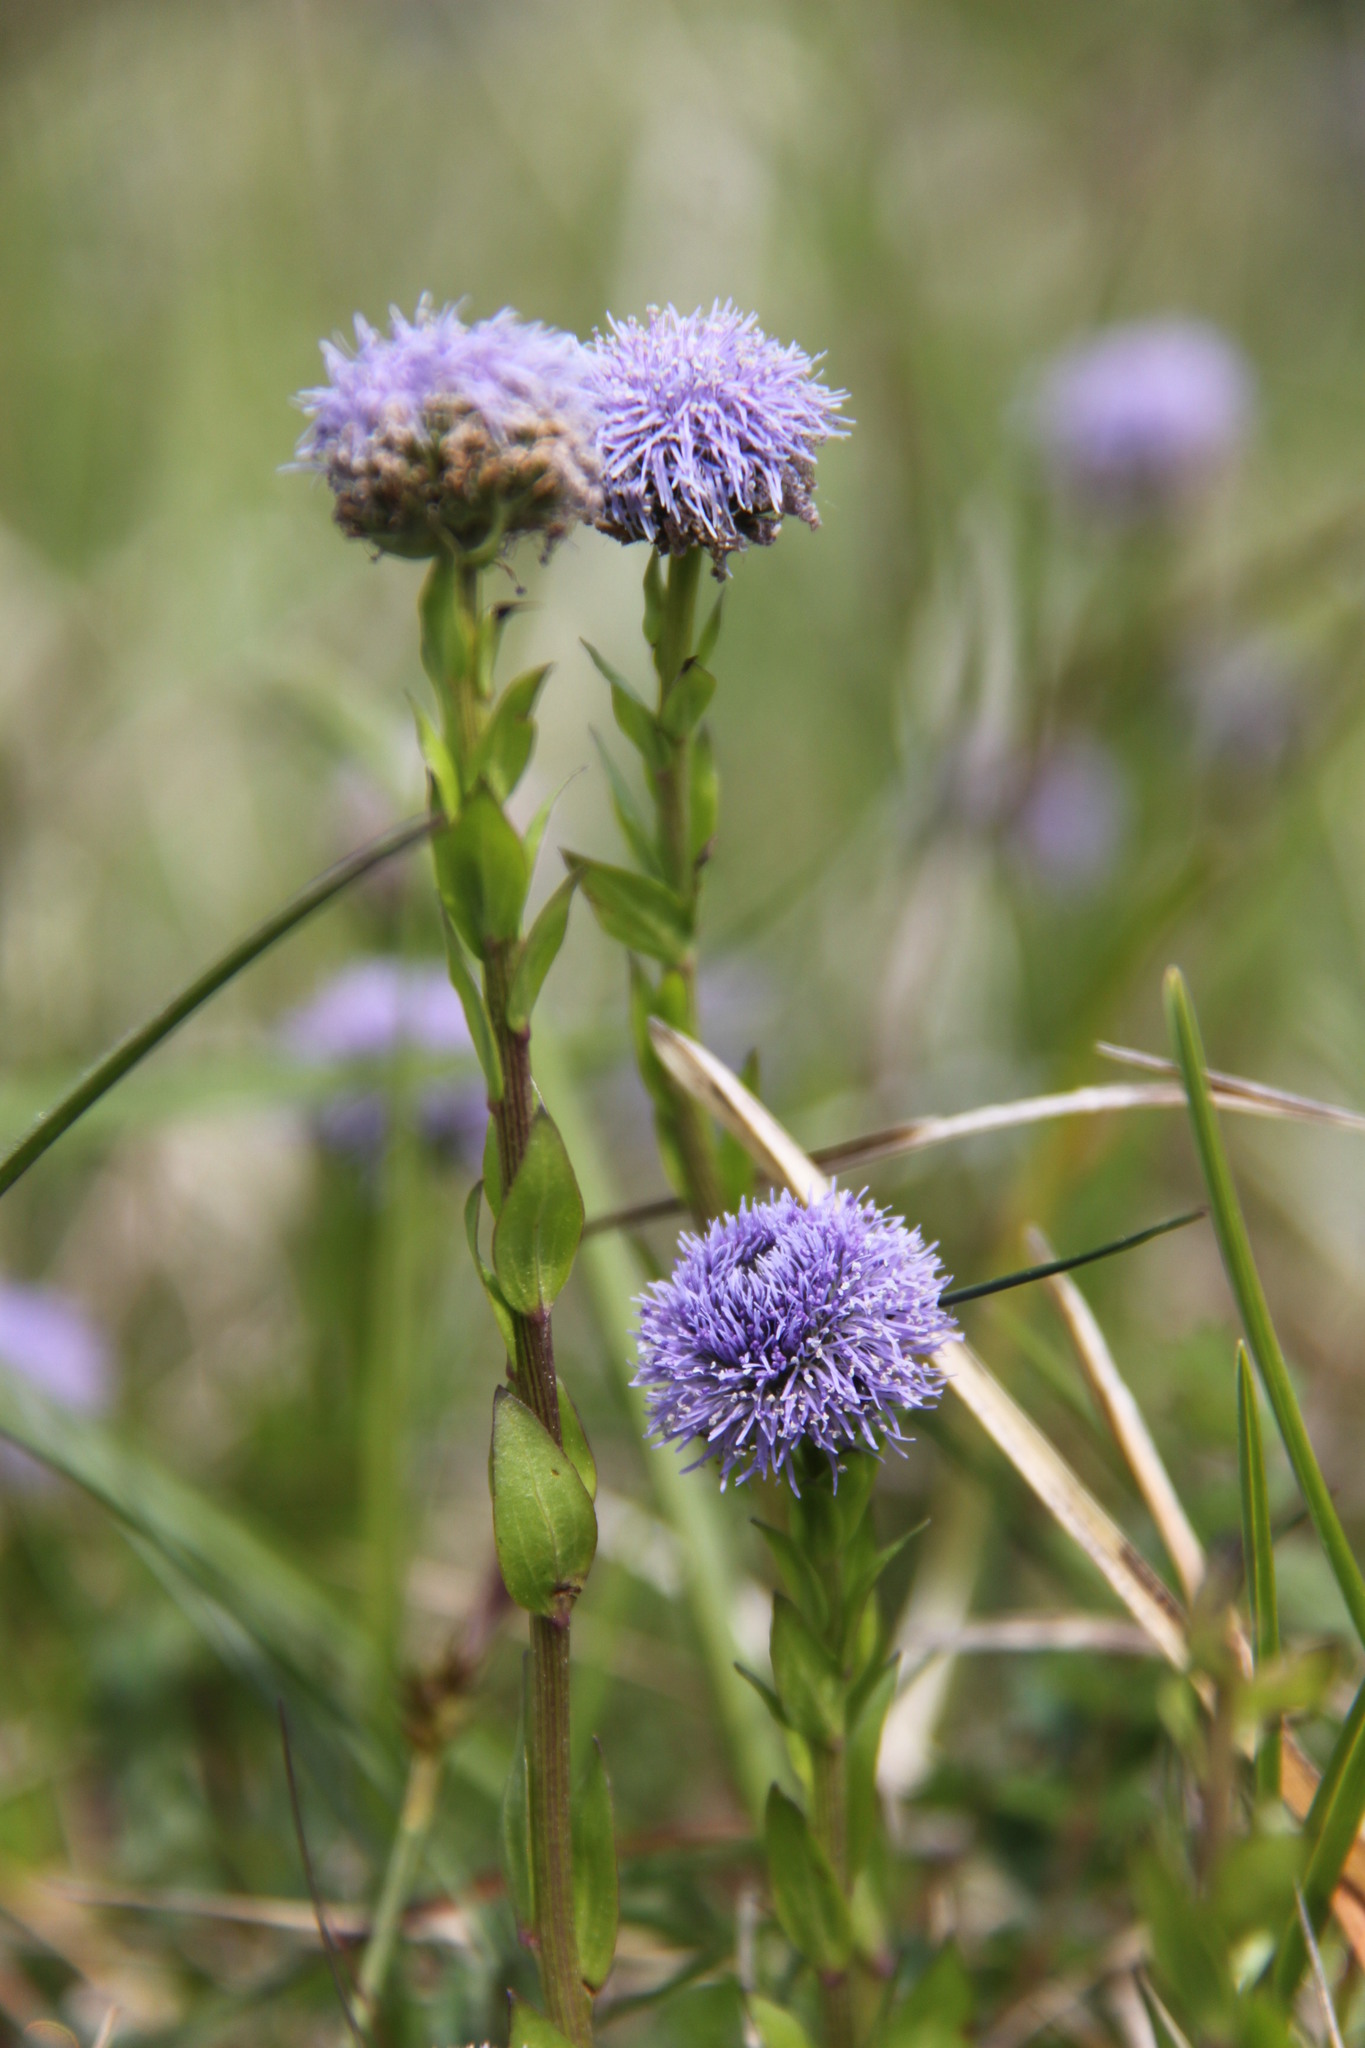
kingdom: Plantae
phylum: Tracheophyta
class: Magnoliopsida
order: Lamiales
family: Plantaginaceae
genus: Globularia
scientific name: Globularia bisnagarica
